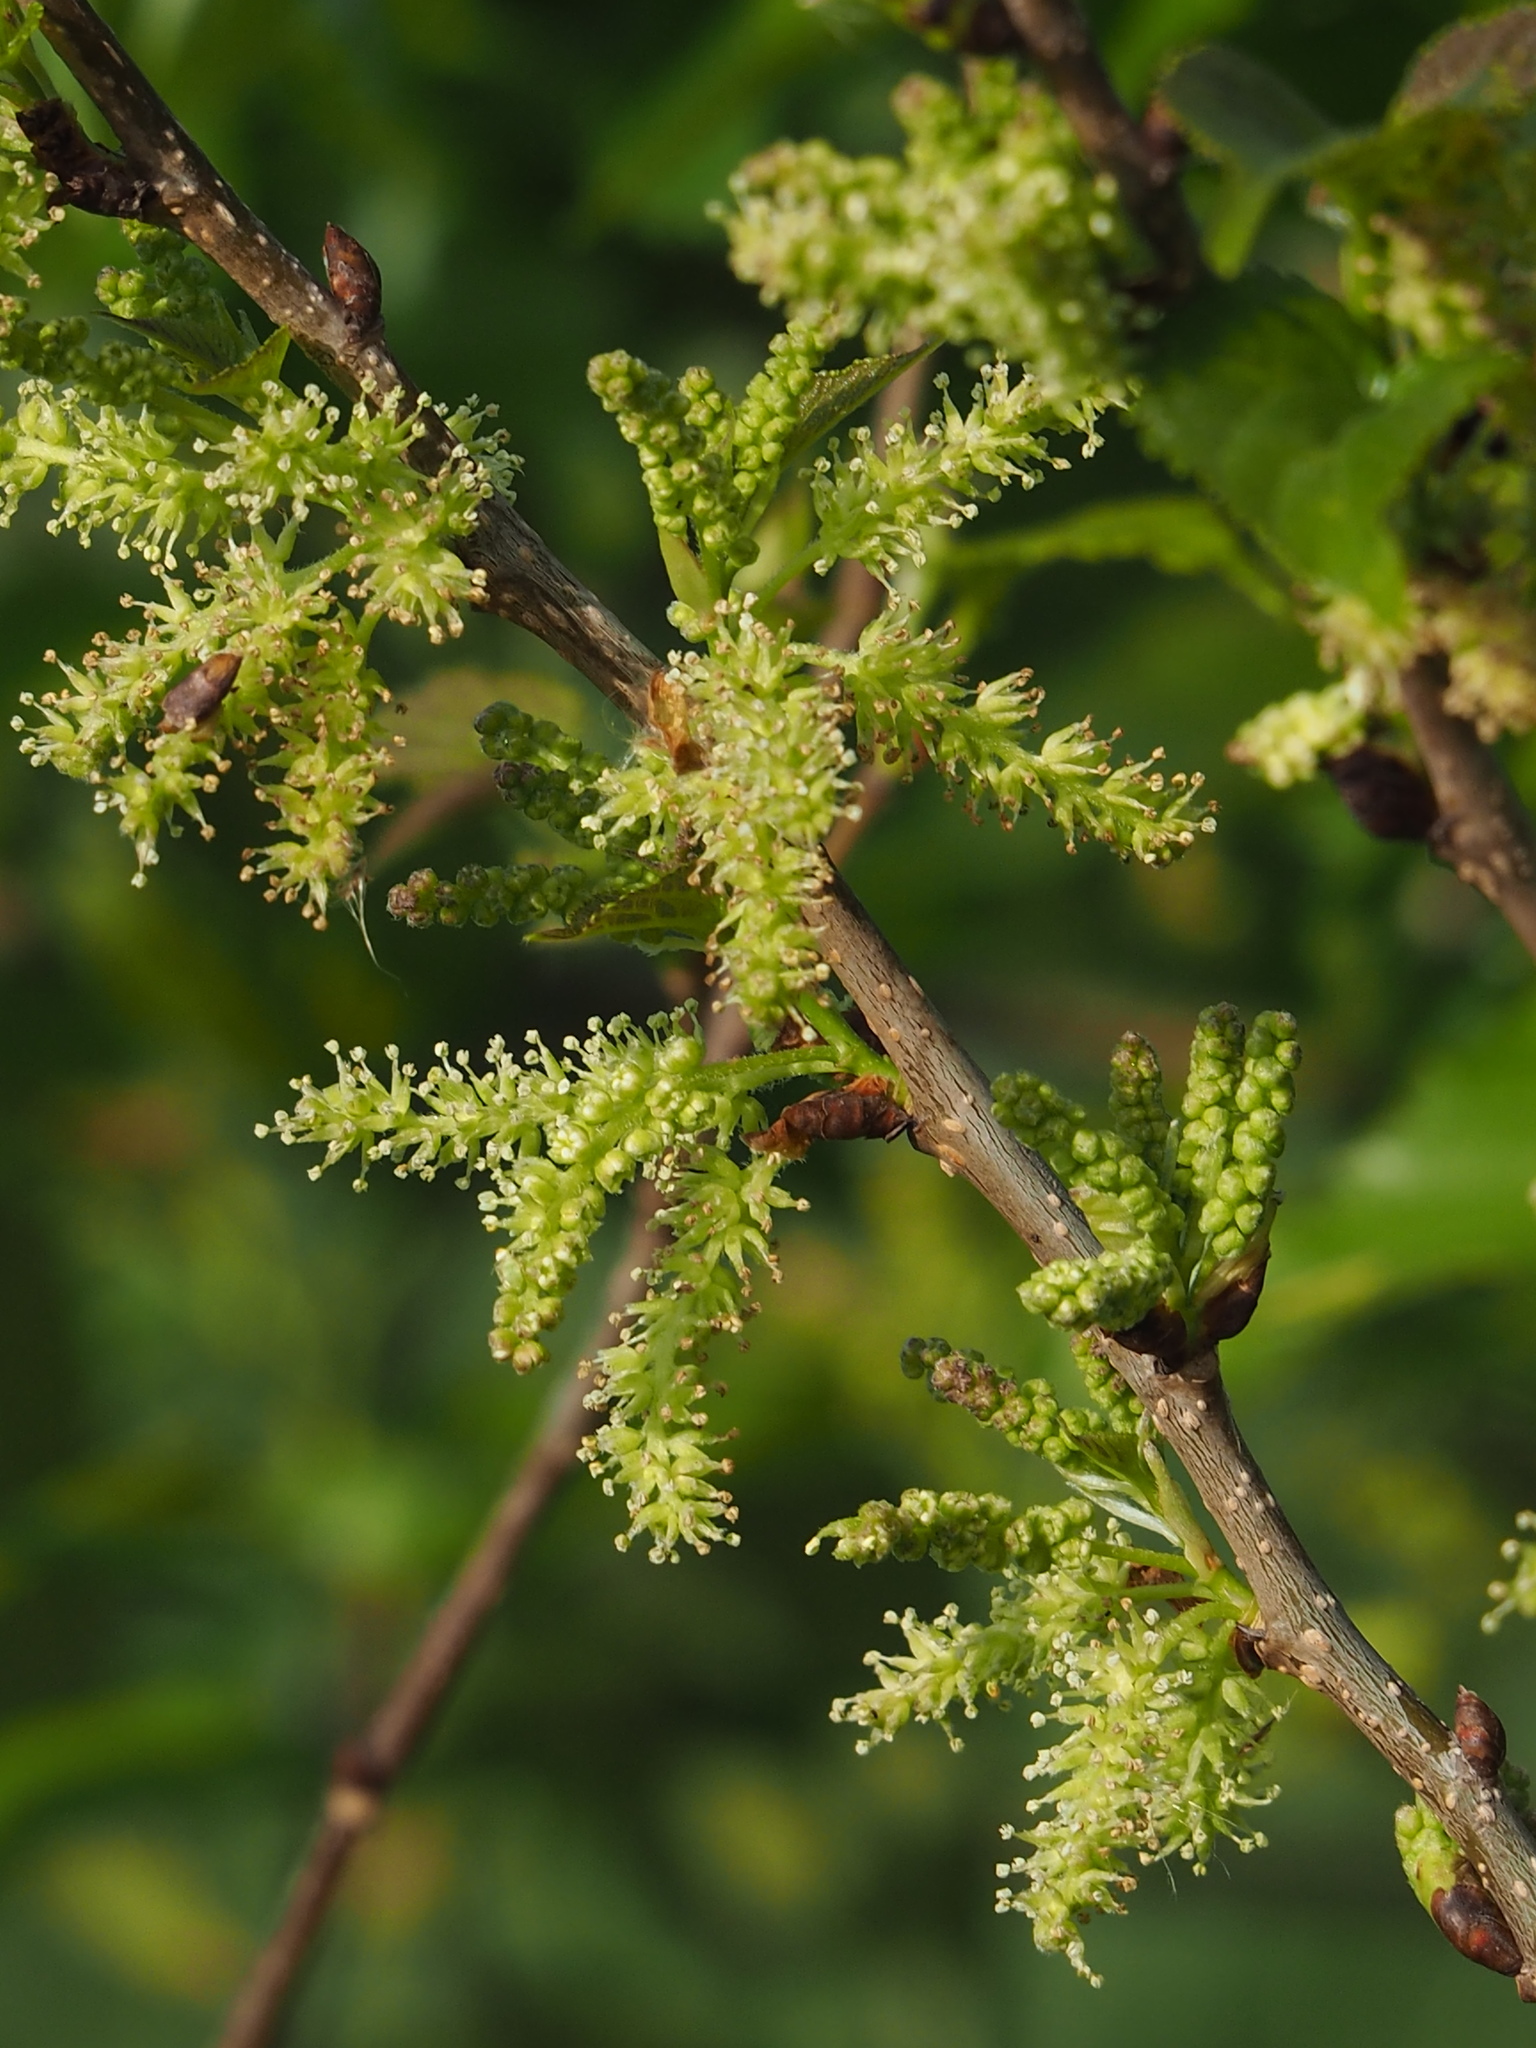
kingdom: Plantae
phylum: Tracheophyta
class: Magnoliopsida
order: Rosales
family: Moraceae
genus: Morus
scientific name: Morus indica
